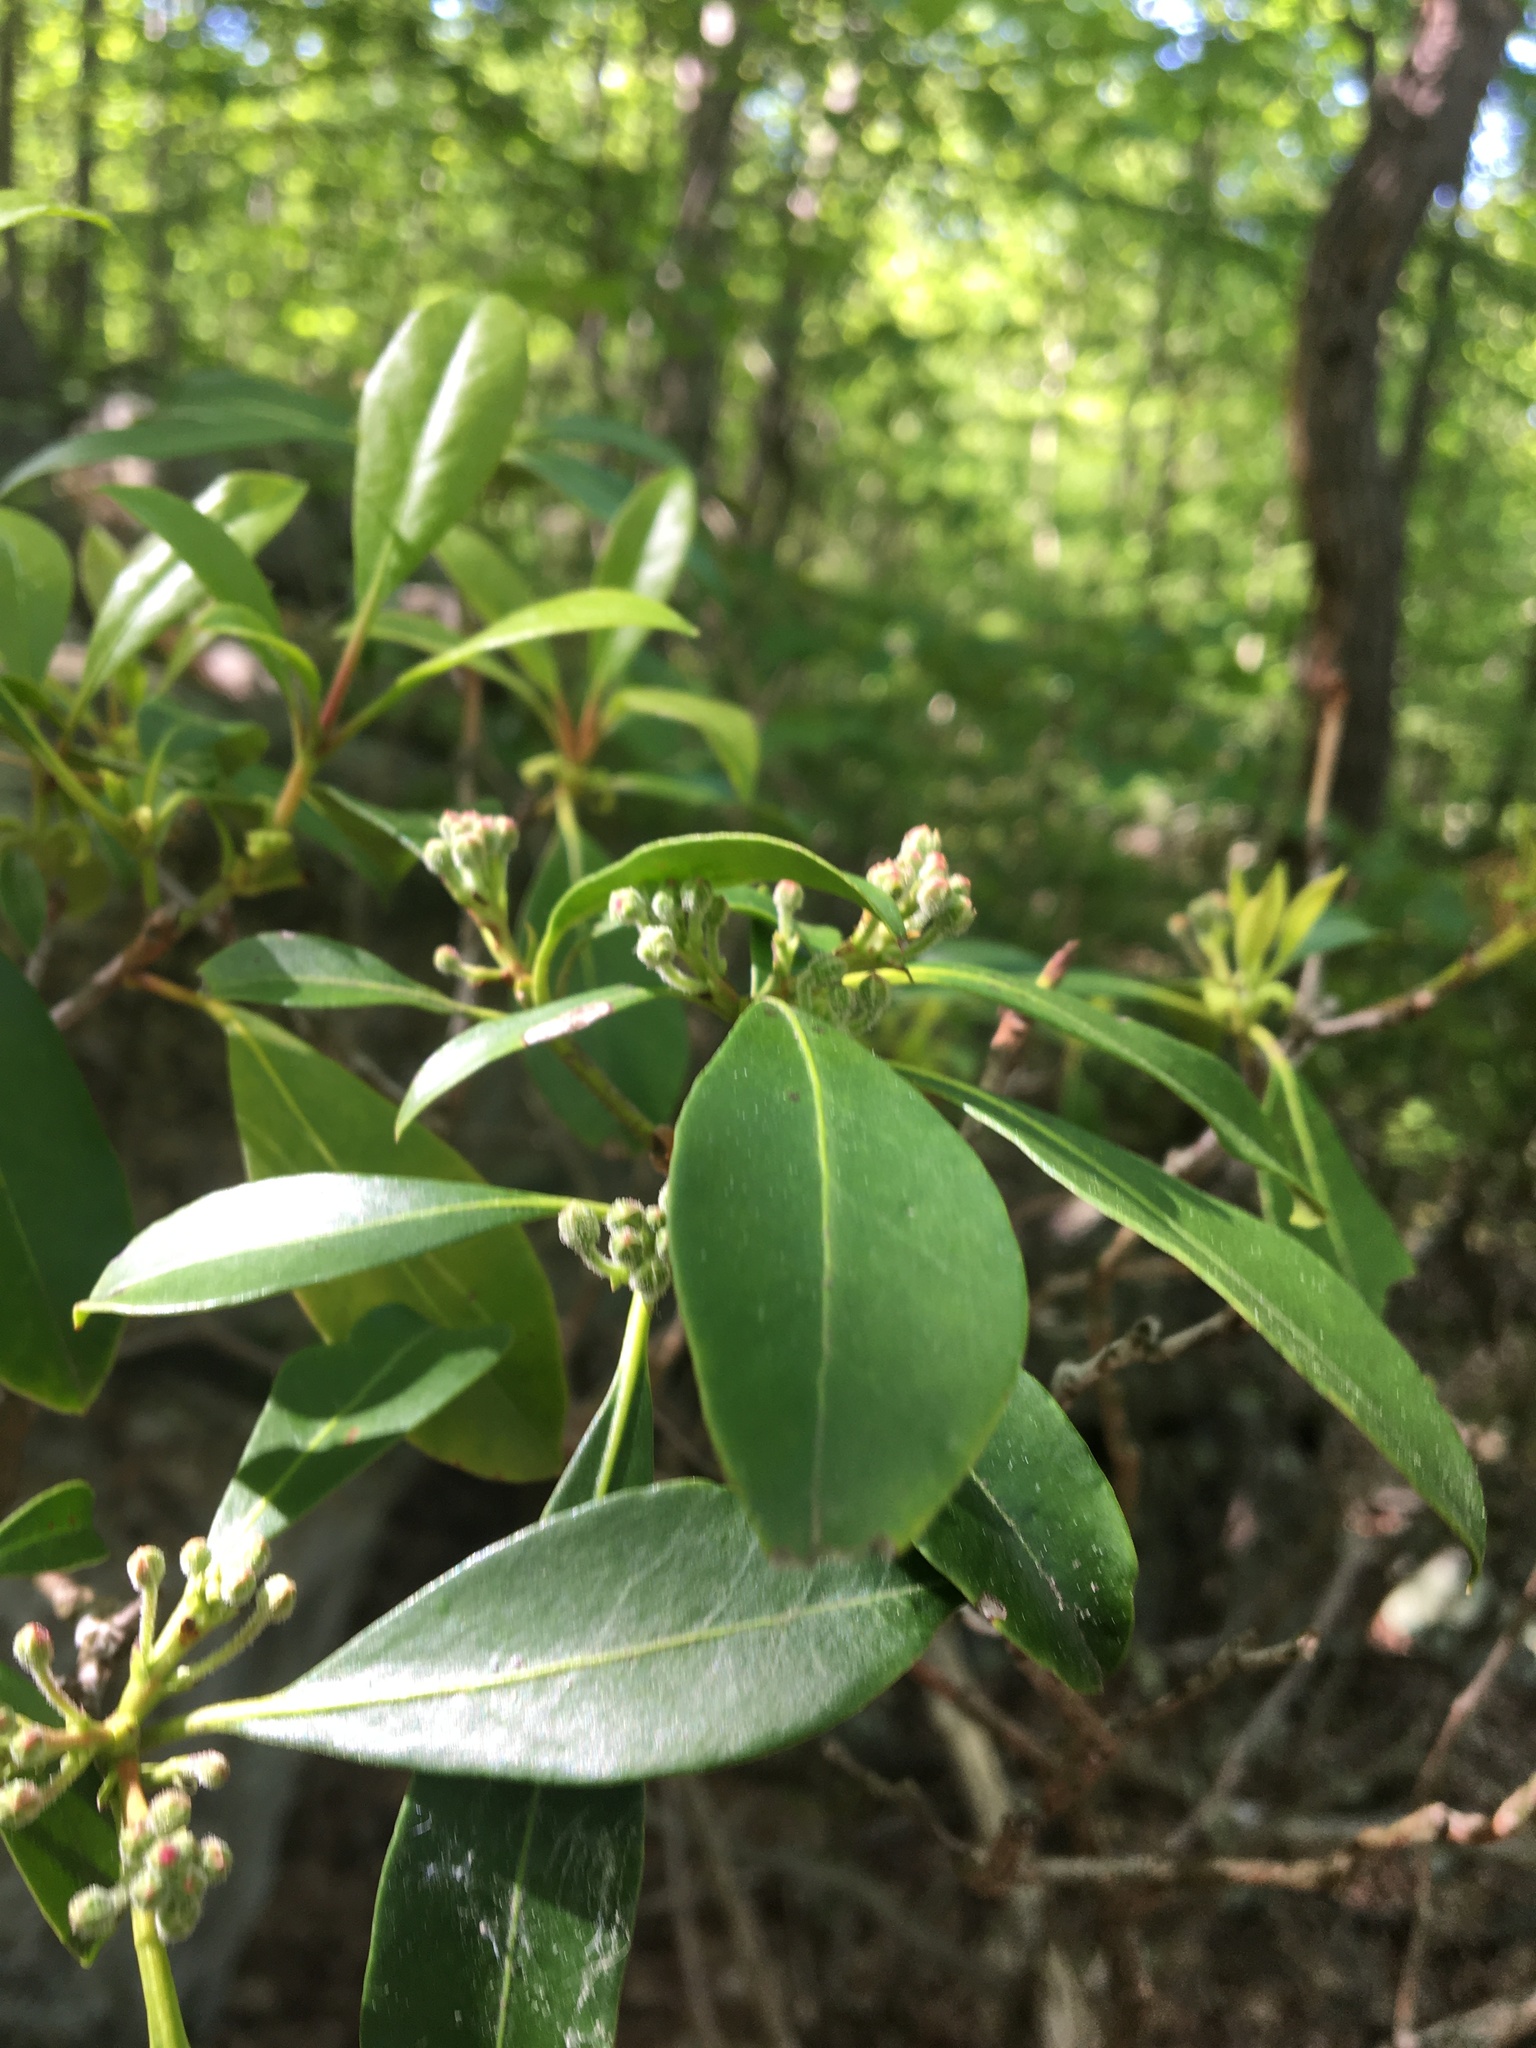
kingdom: Plantae
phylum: Tracheophyta
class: Magnoliopsida
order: Ericales
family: Ericaceae
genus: Kalmia
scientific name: Kalmia latifolia
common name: Mountain-laurel
